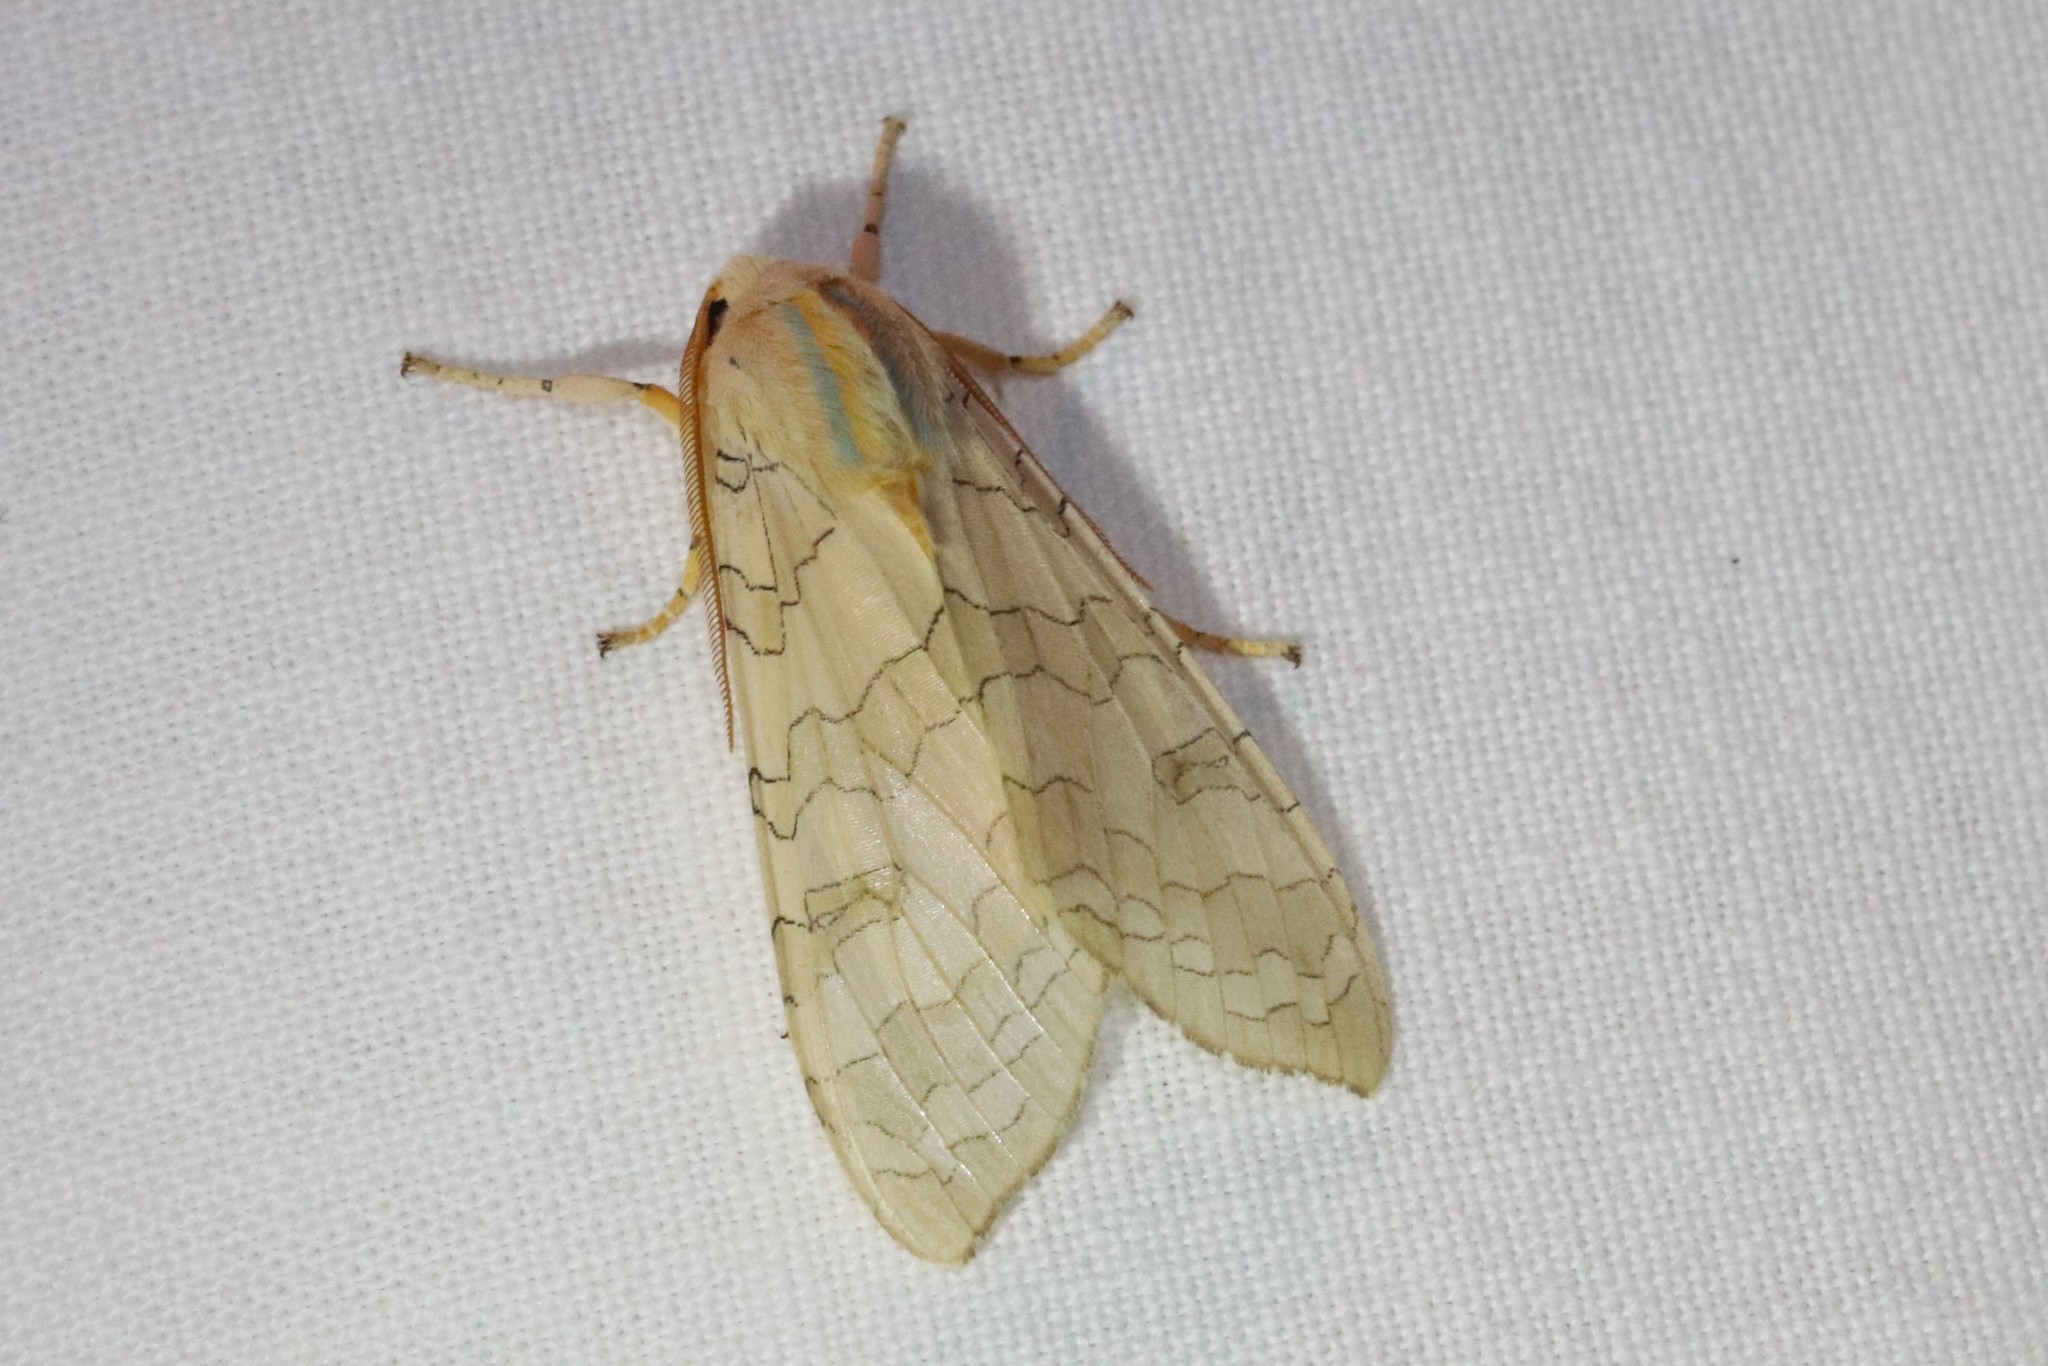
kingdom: Animalia
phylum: Arthropoda
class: Insecta
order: Lepidoptera
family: Erebidae
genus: Halysidota
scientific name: Halysidota tessellaris
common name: Banded tussock moth
